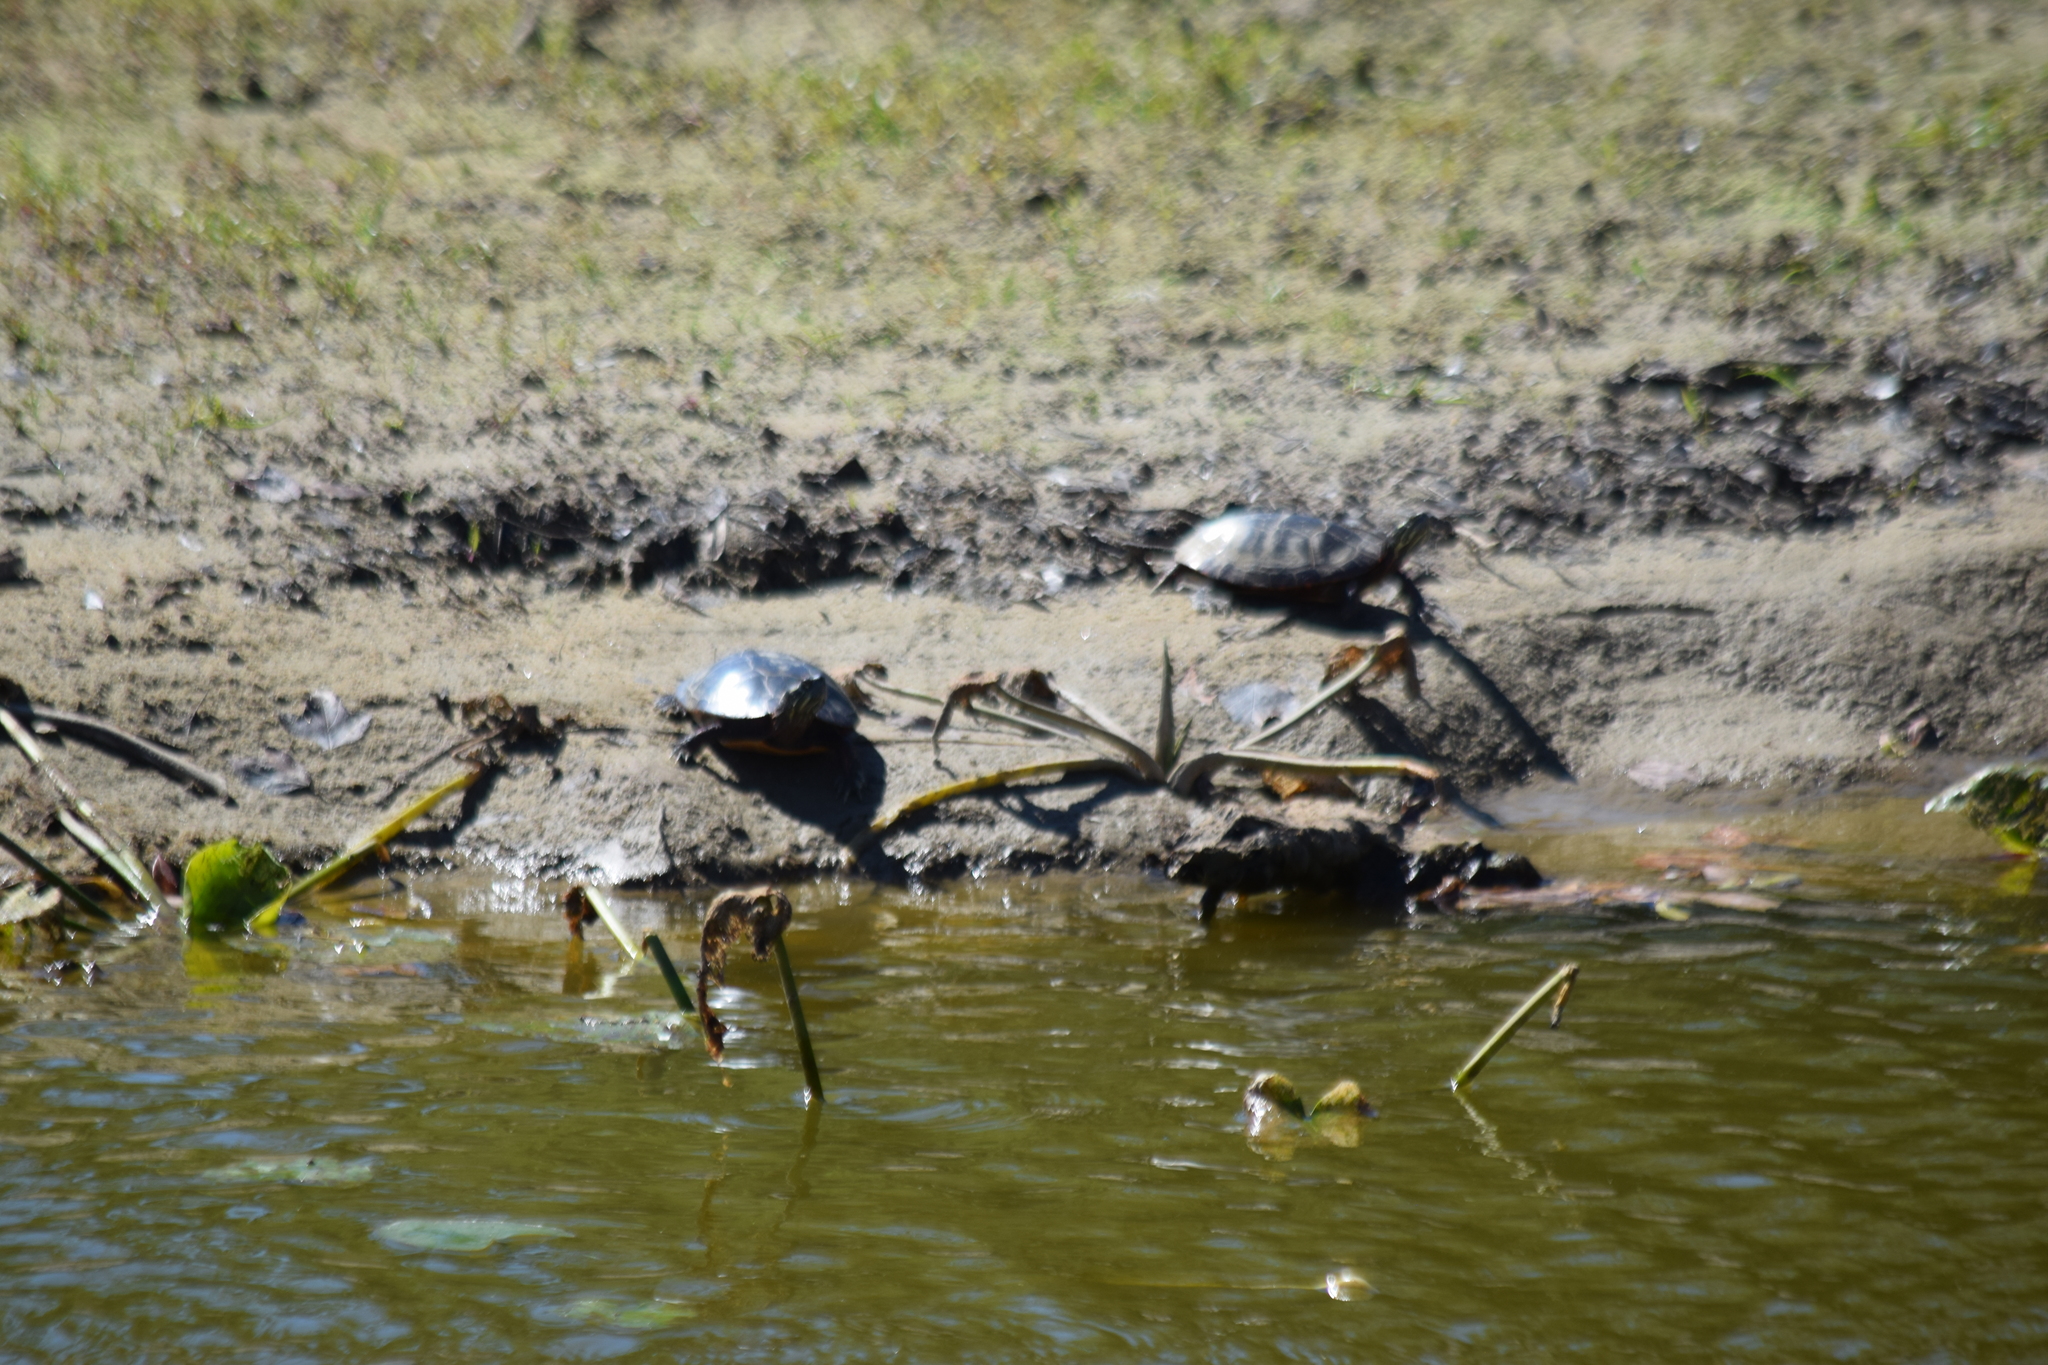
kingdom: Animalia
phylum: Chordata
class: Testudines
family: Emydidae
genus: Chrysemys
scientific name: Chrysemys picta
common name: Painted turtle
